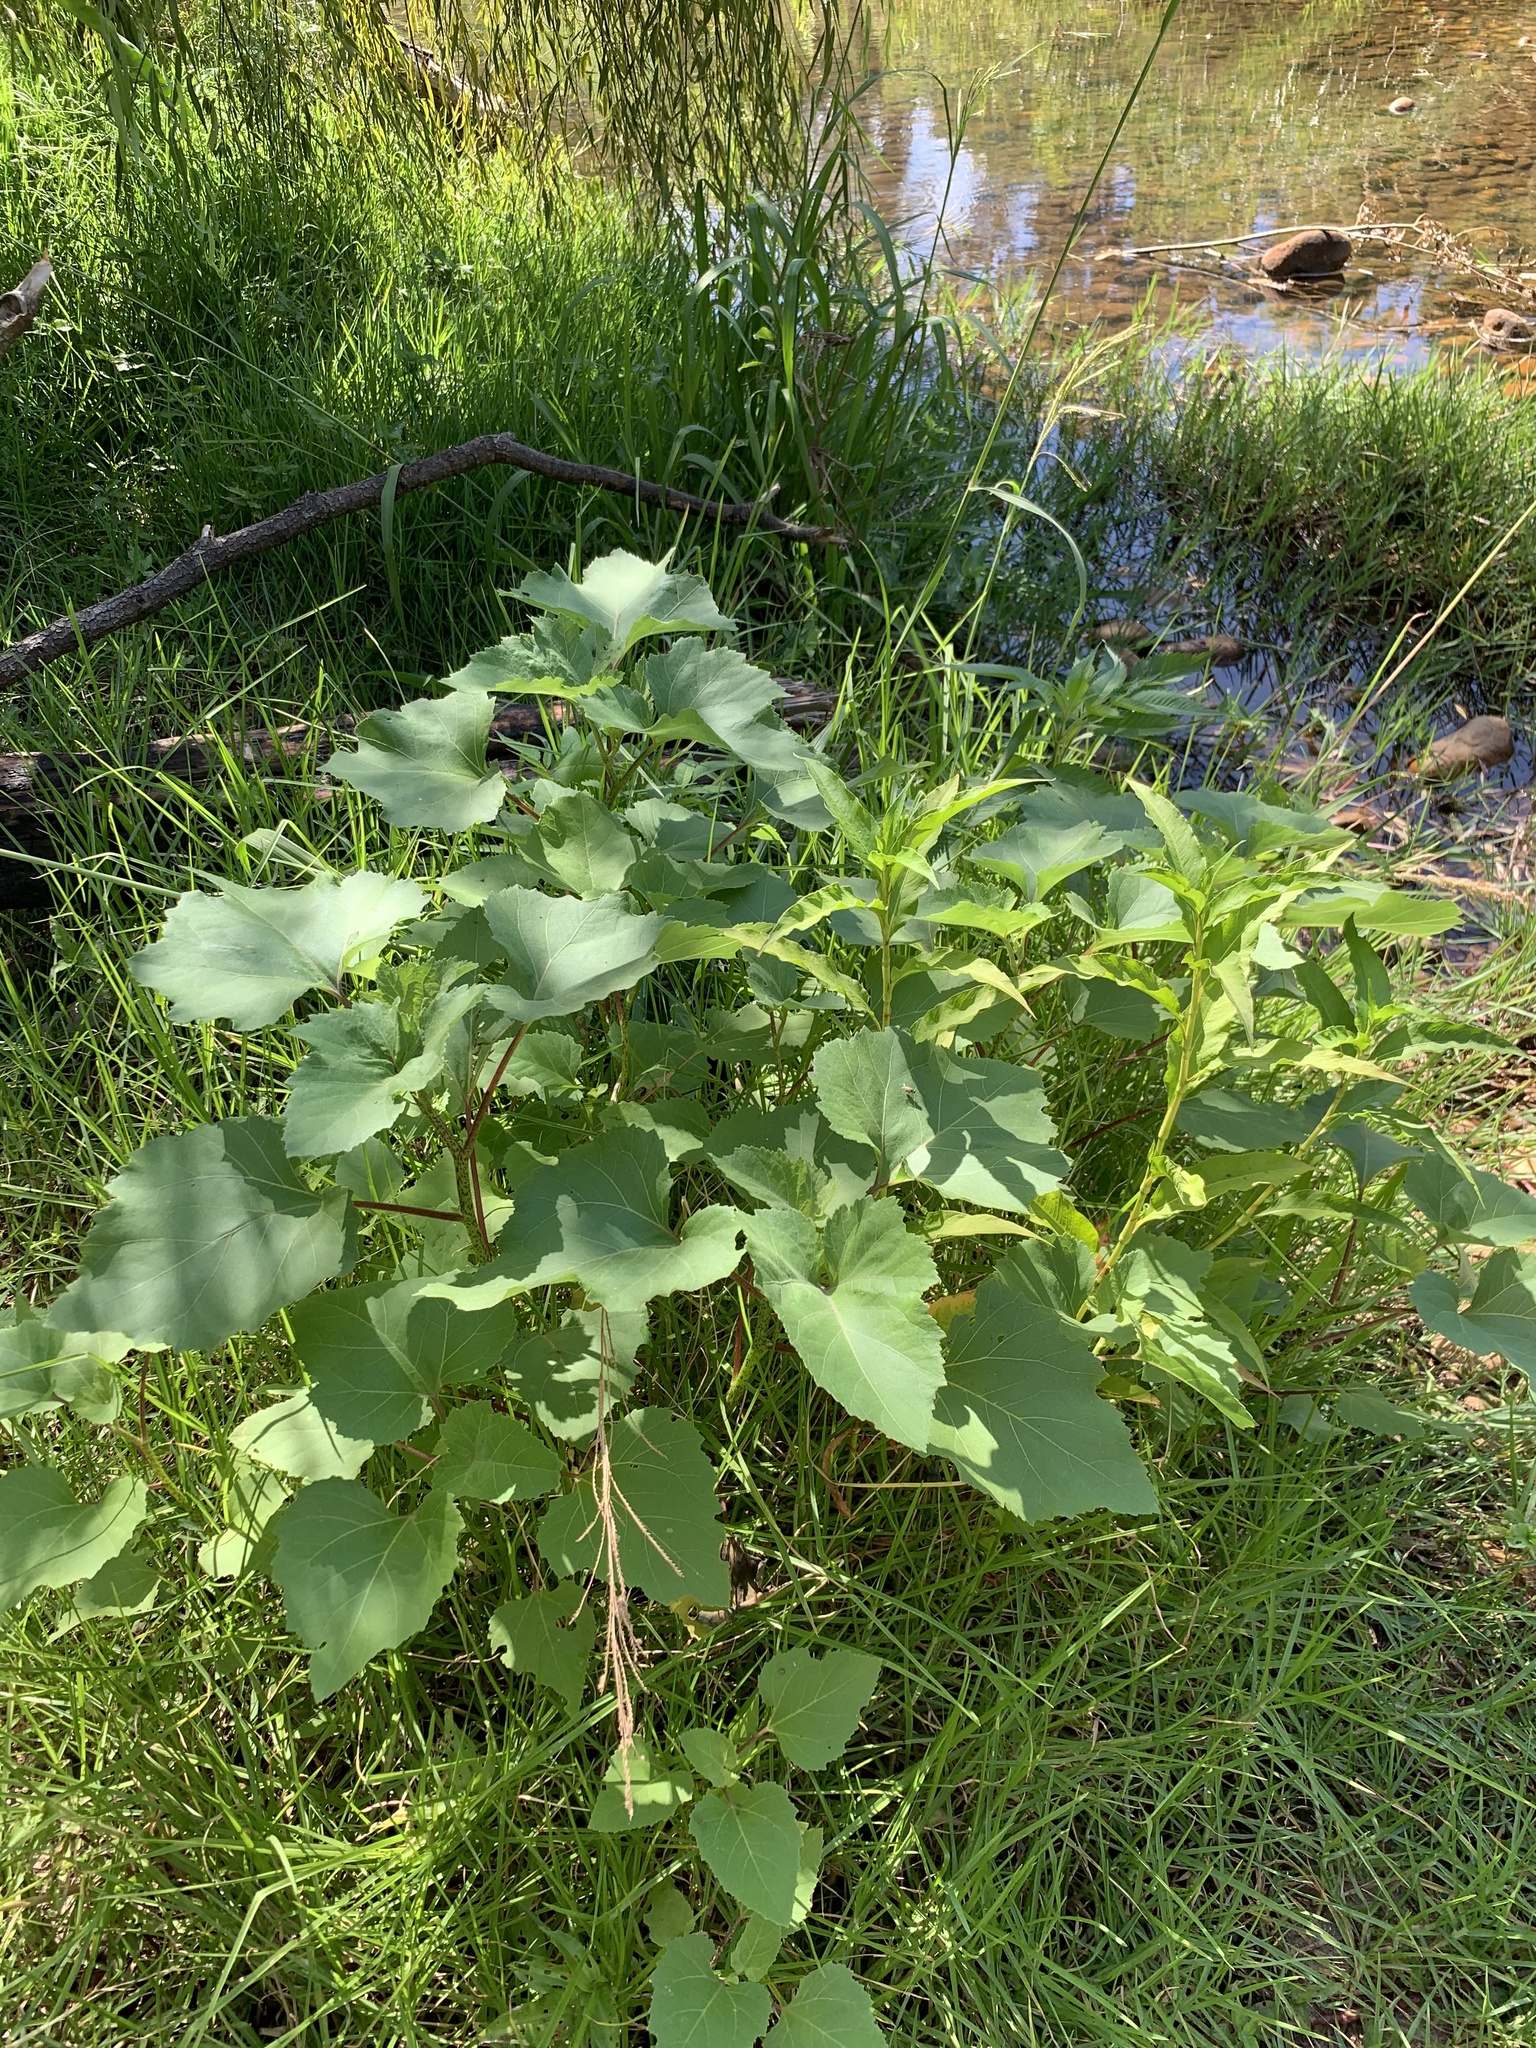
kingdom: Plantae
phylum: Tracheophyta
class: Magnoliopsida
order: Asterales
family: Asteraceae
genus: Xanthium
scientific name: Xanthium strumarium
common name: Rough cocklebur
